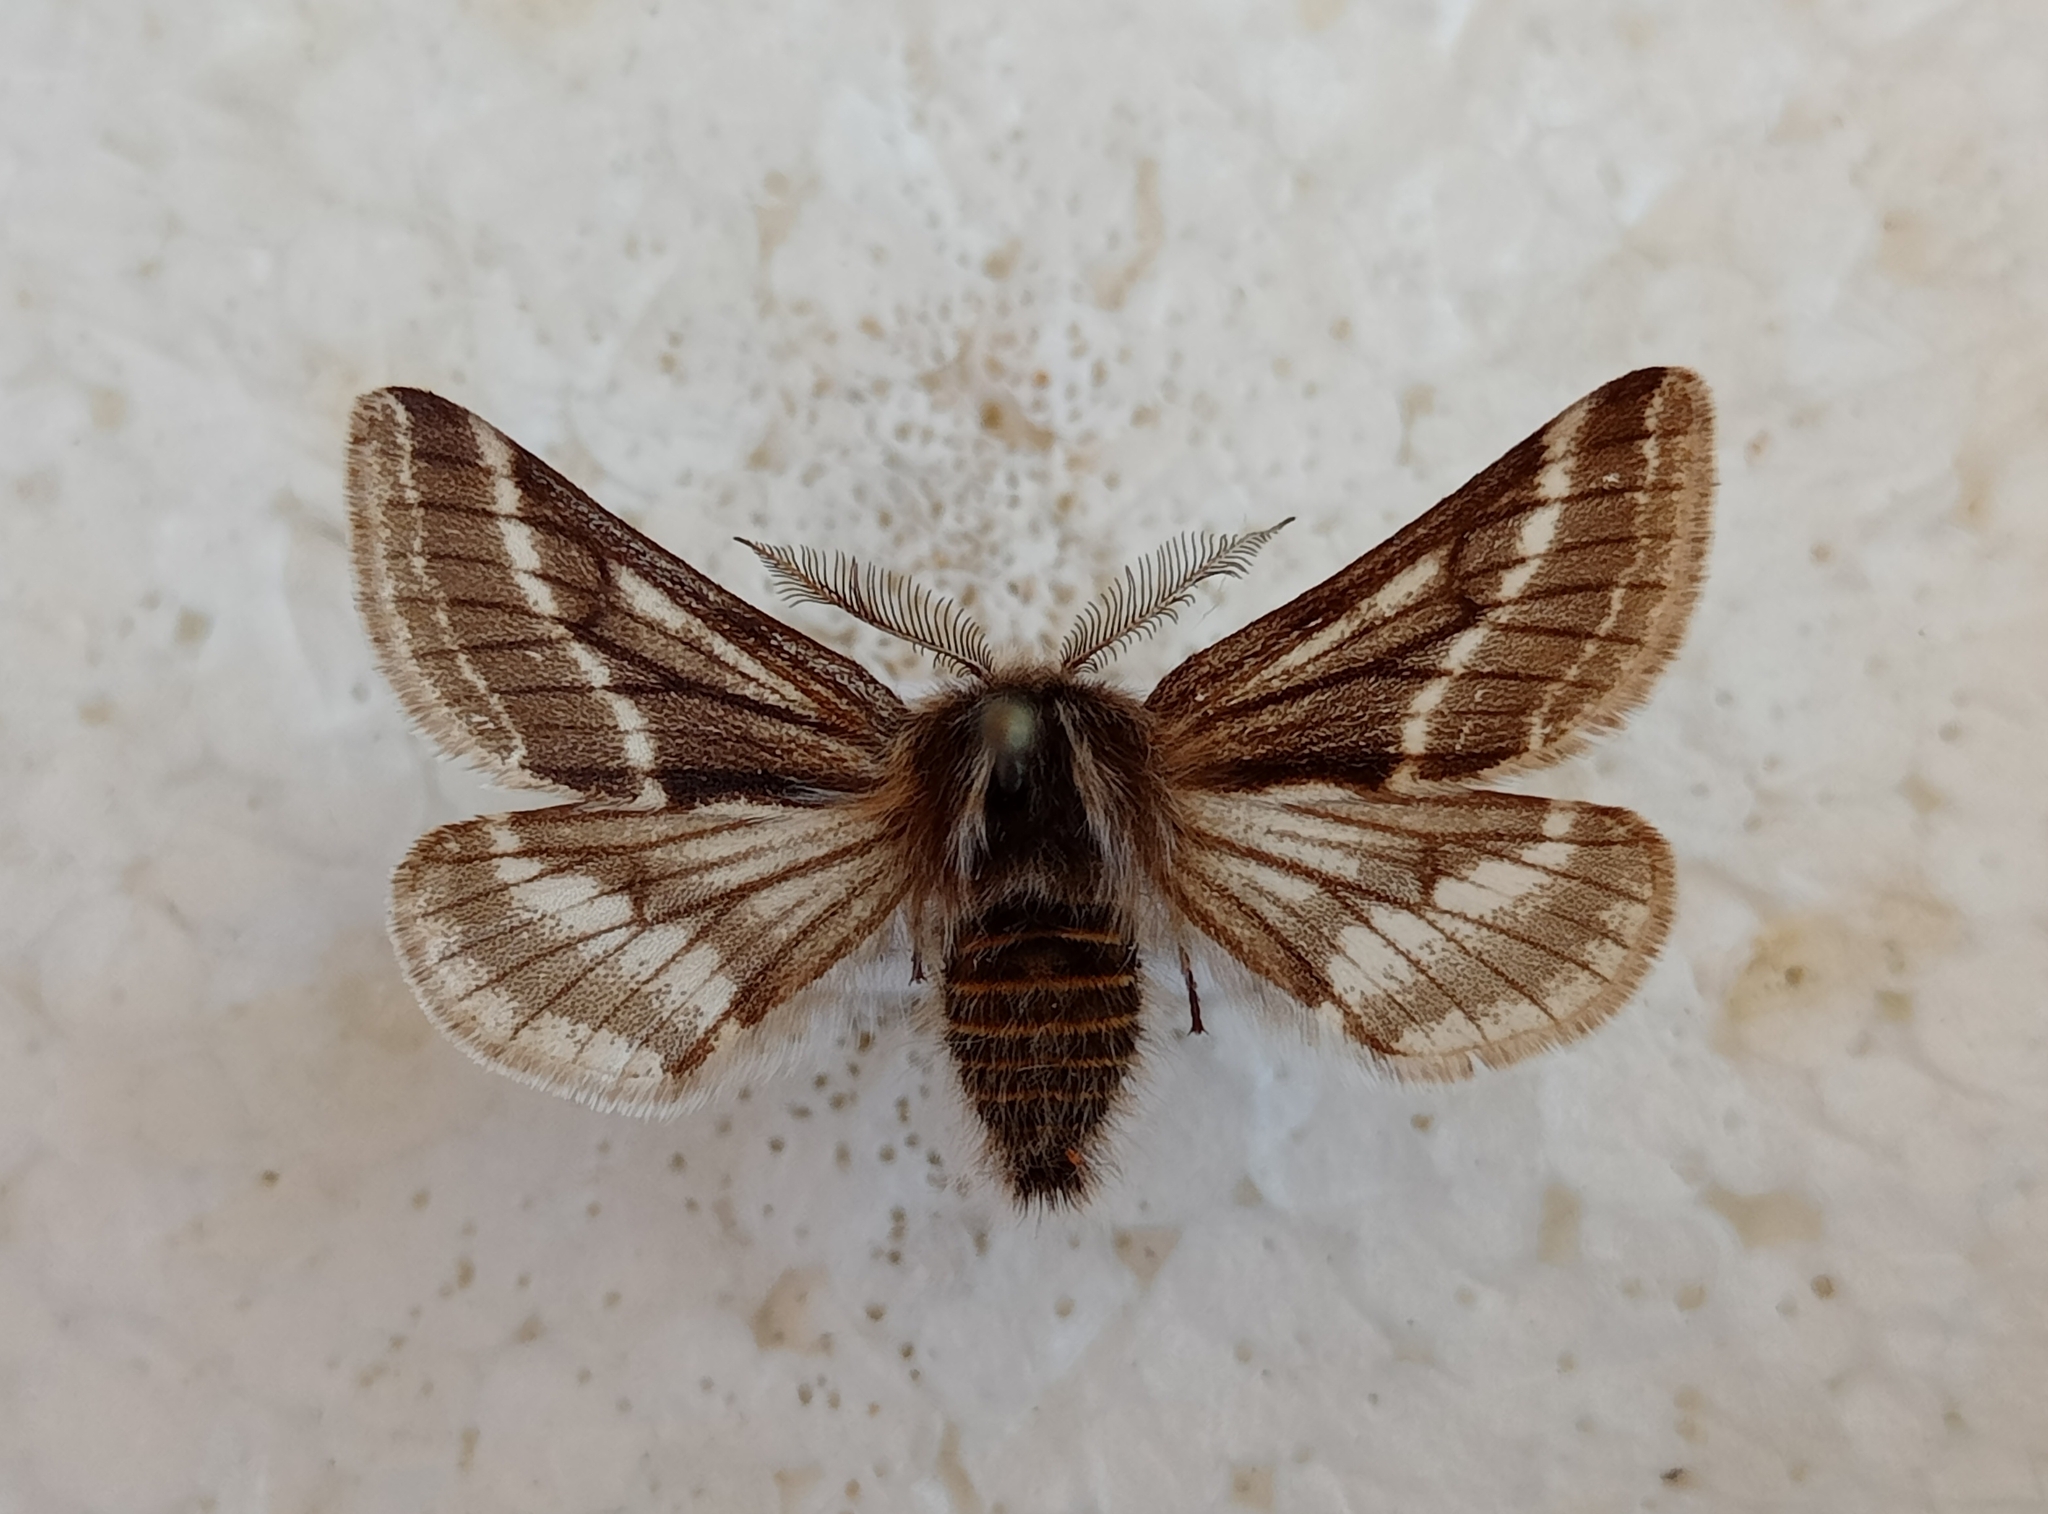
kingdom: Animalia
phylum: Arthropoda
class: Insecta
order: Lepidoptera
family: Geometridae
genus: Lycia
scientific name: Lycia zonaria
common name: Belted beauty
